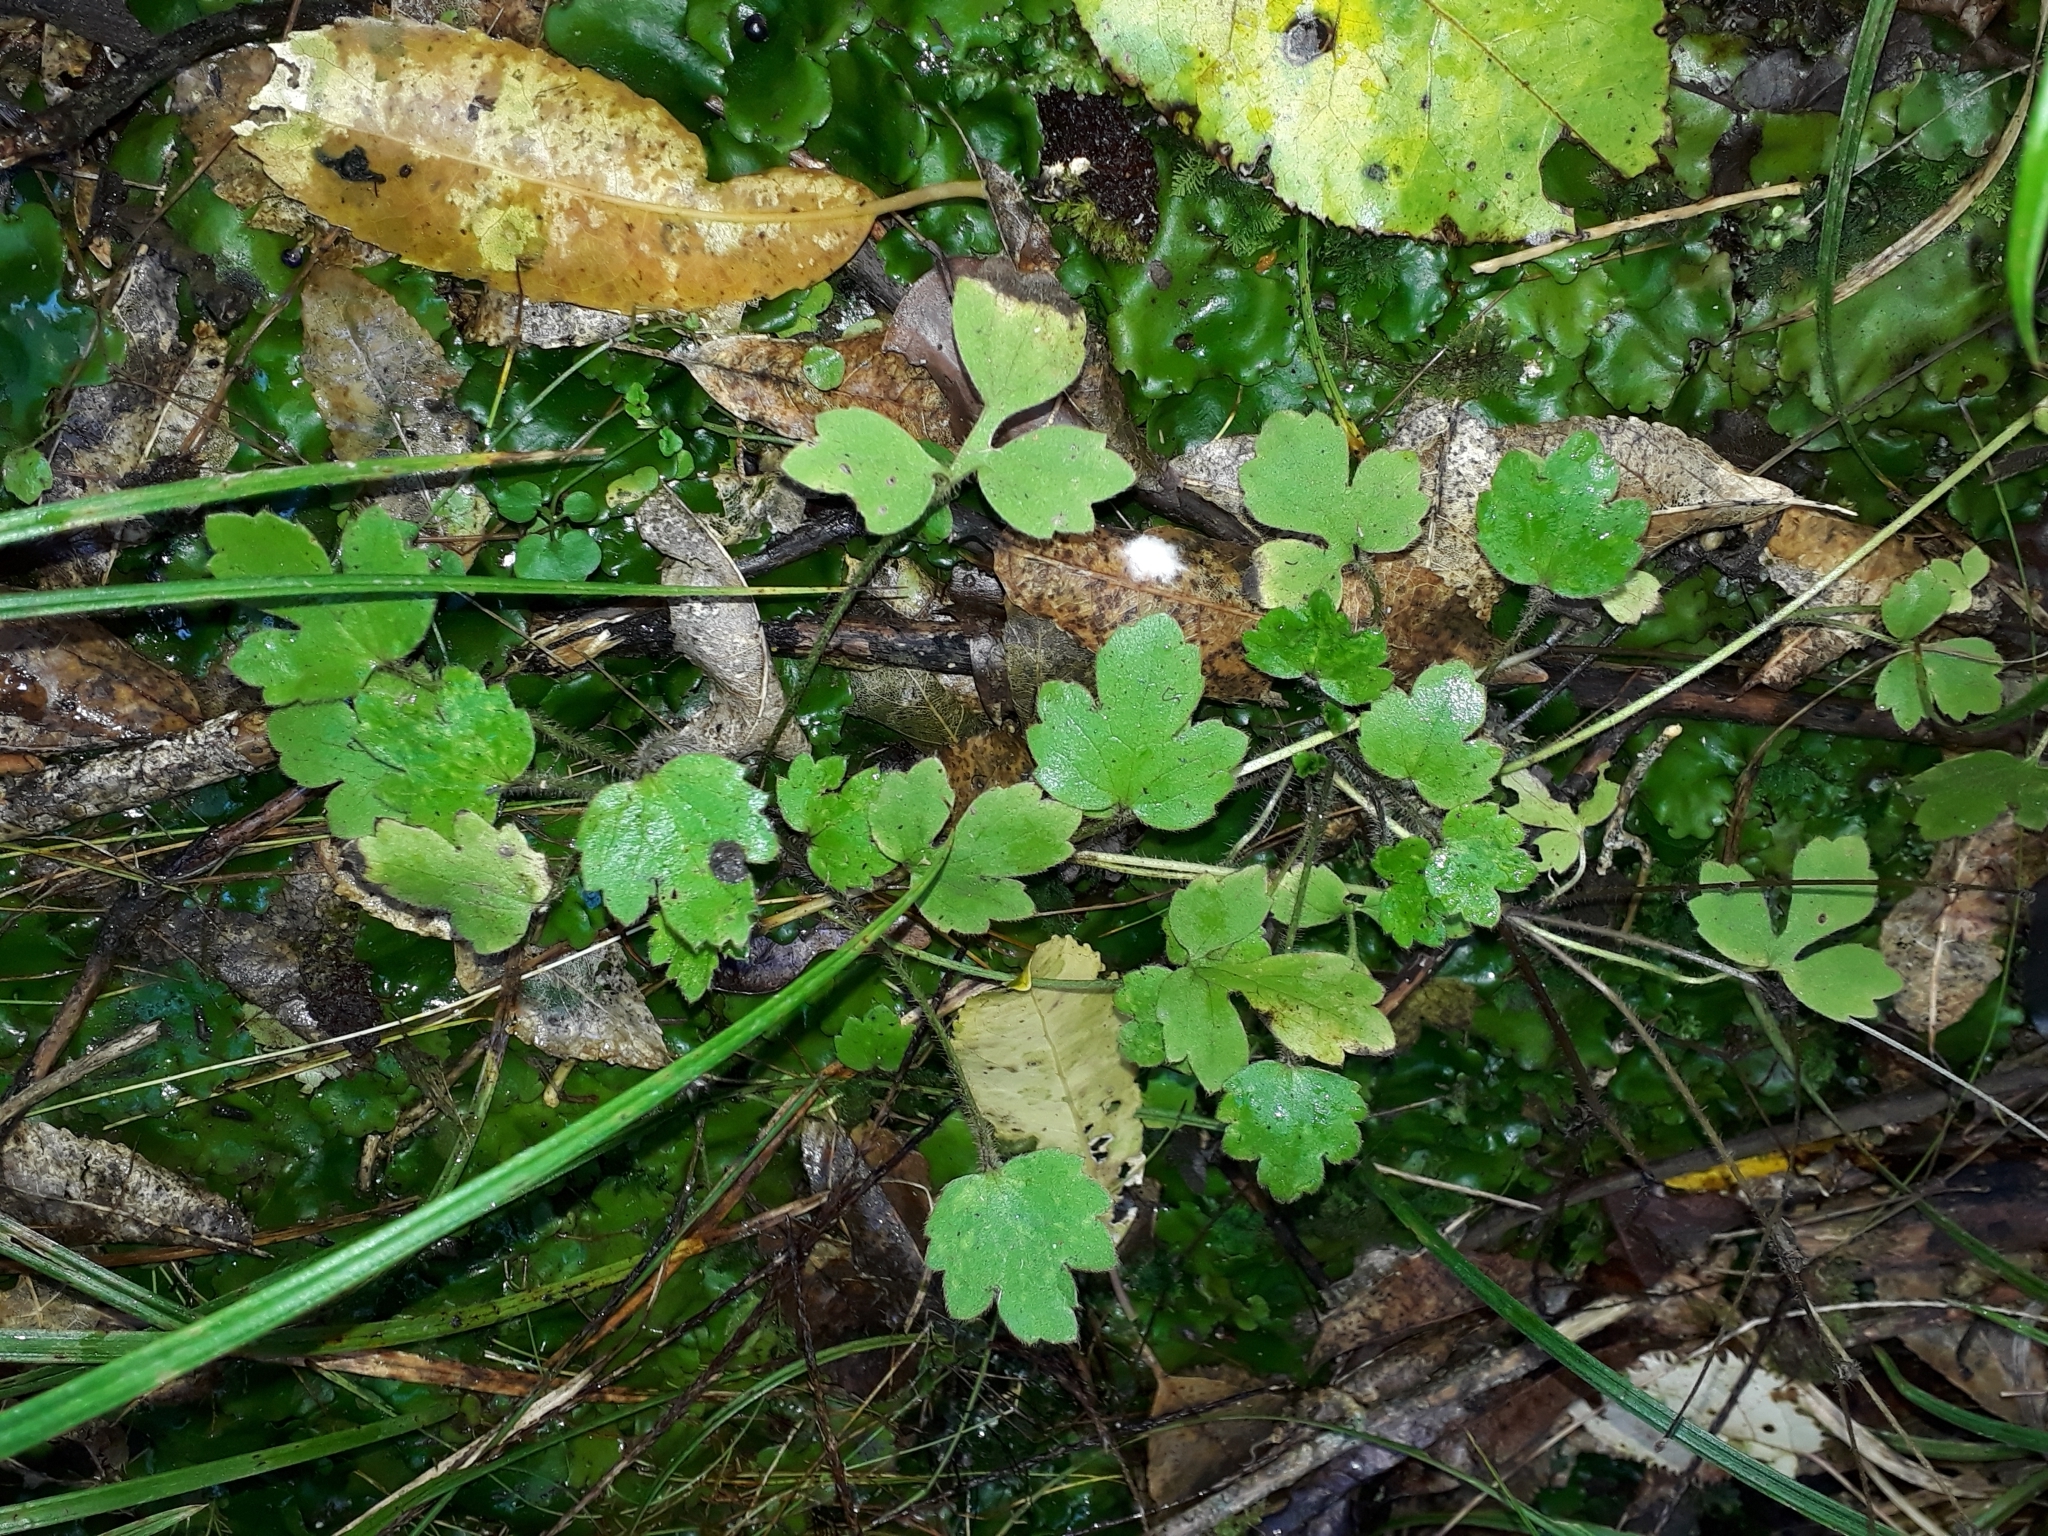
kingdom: Plantae
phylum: Tracheophyta
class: Magnoliopsida
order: Ranunculales
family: Ranunculaceae
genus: Ranunculus
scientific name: Ranunculus reflexus
